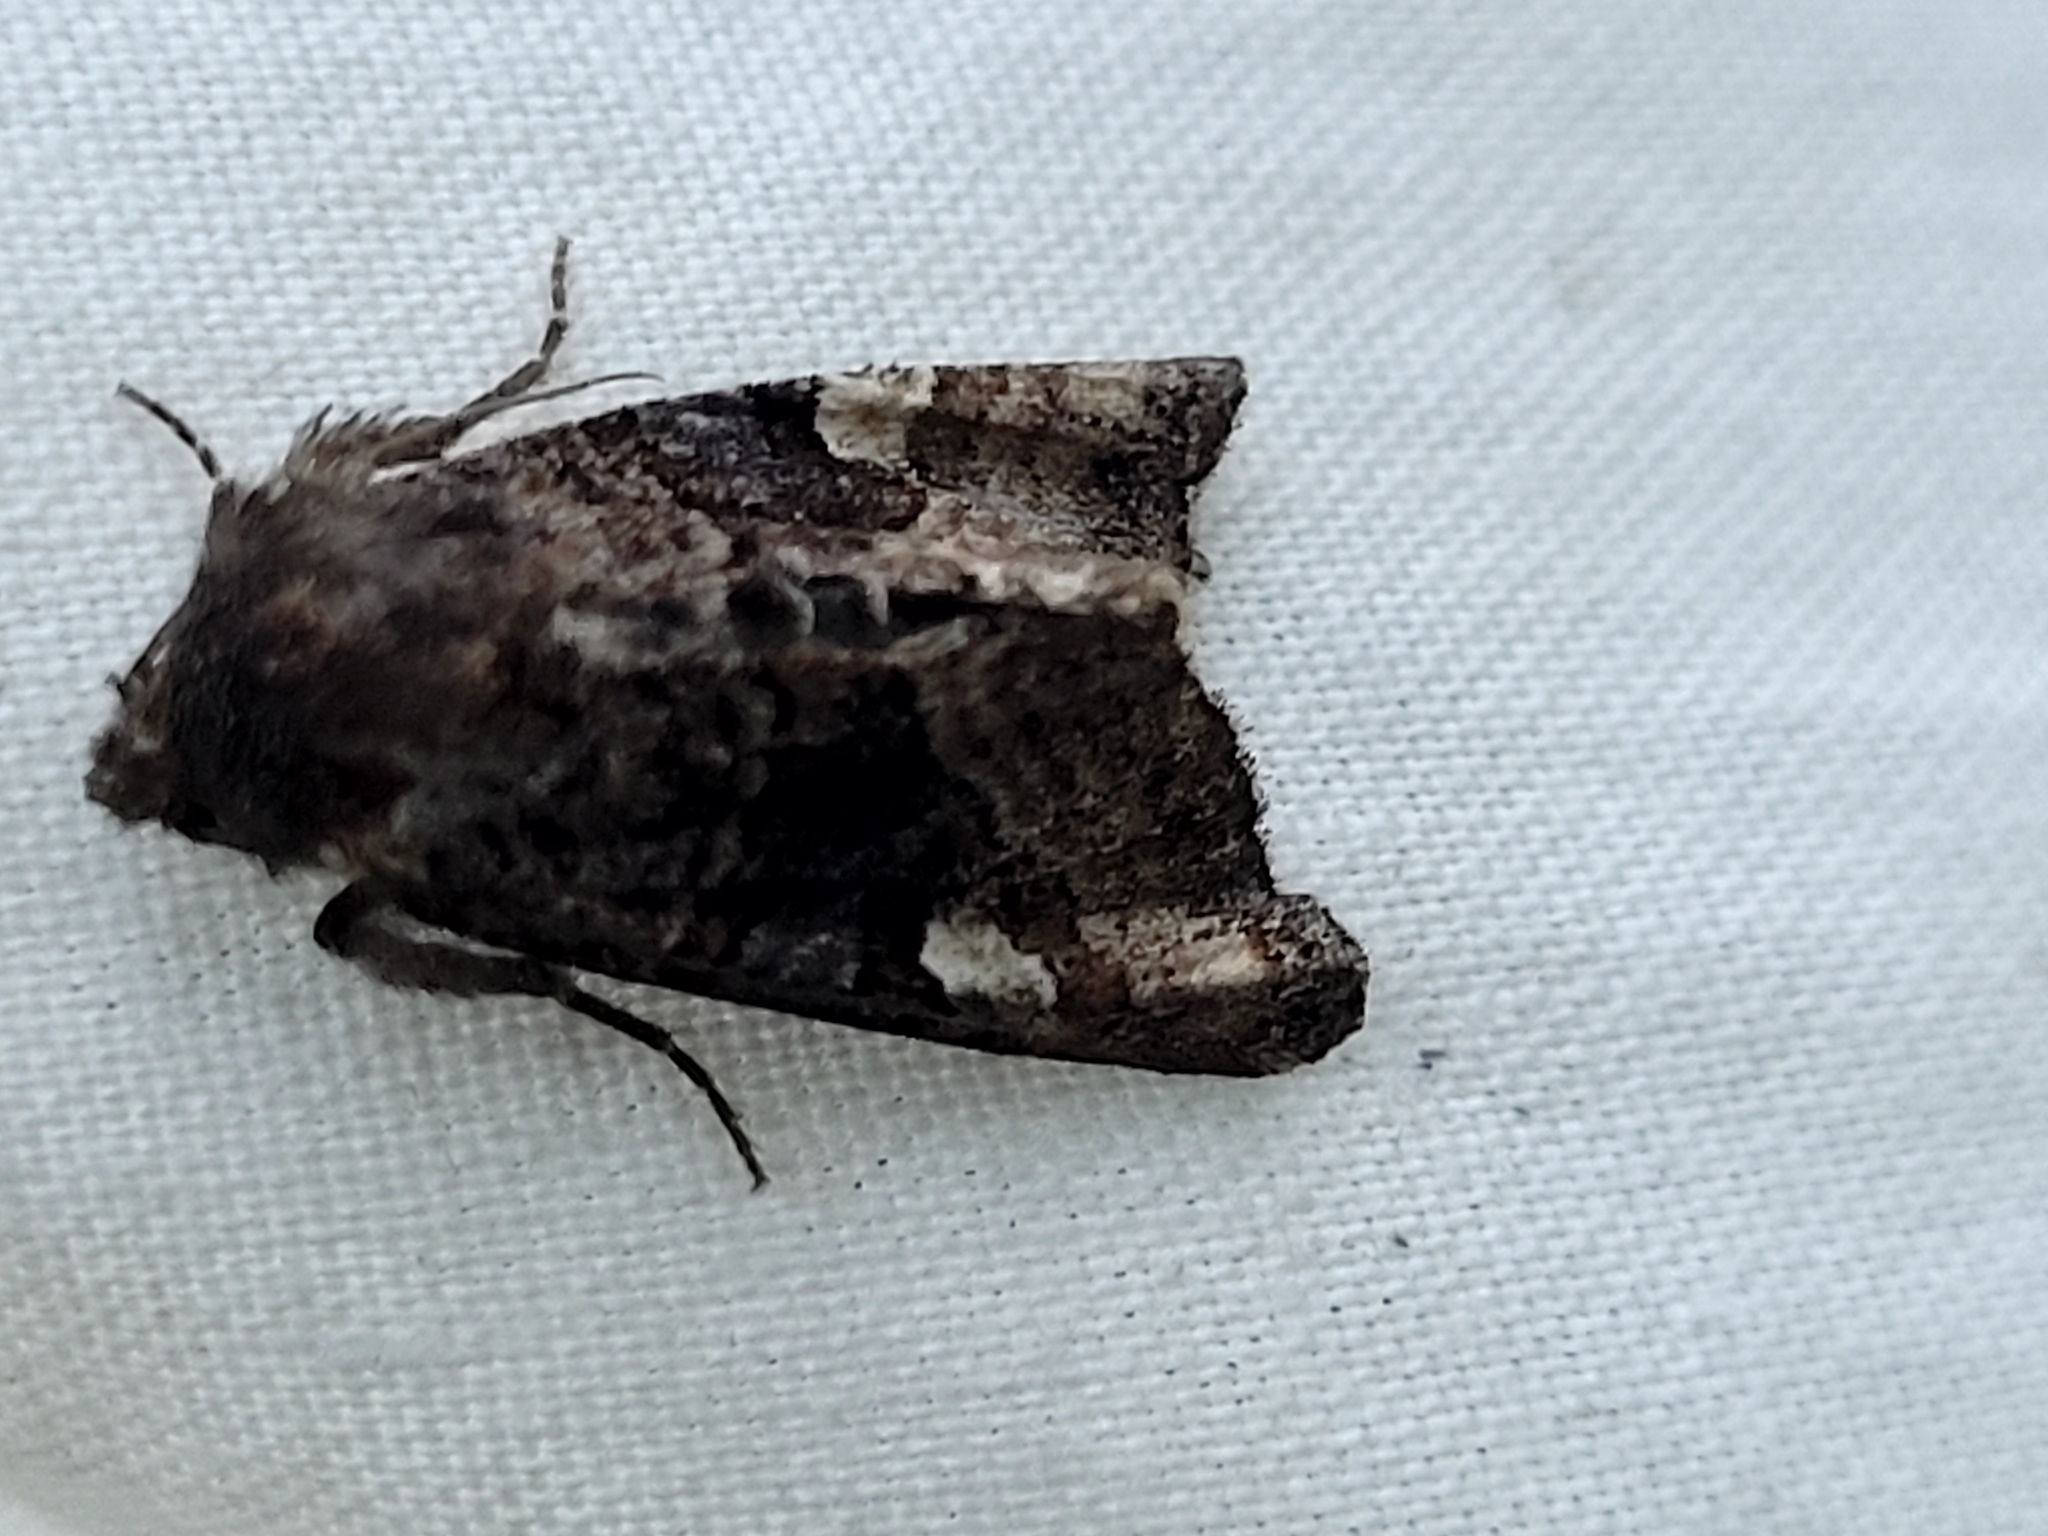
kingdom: Animalia
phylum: Arthropoda
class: Insecta
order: Lepidoptera
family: Noctuidae
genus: Euplexia
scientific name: Euplexia benesimilis
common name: American angle shades
